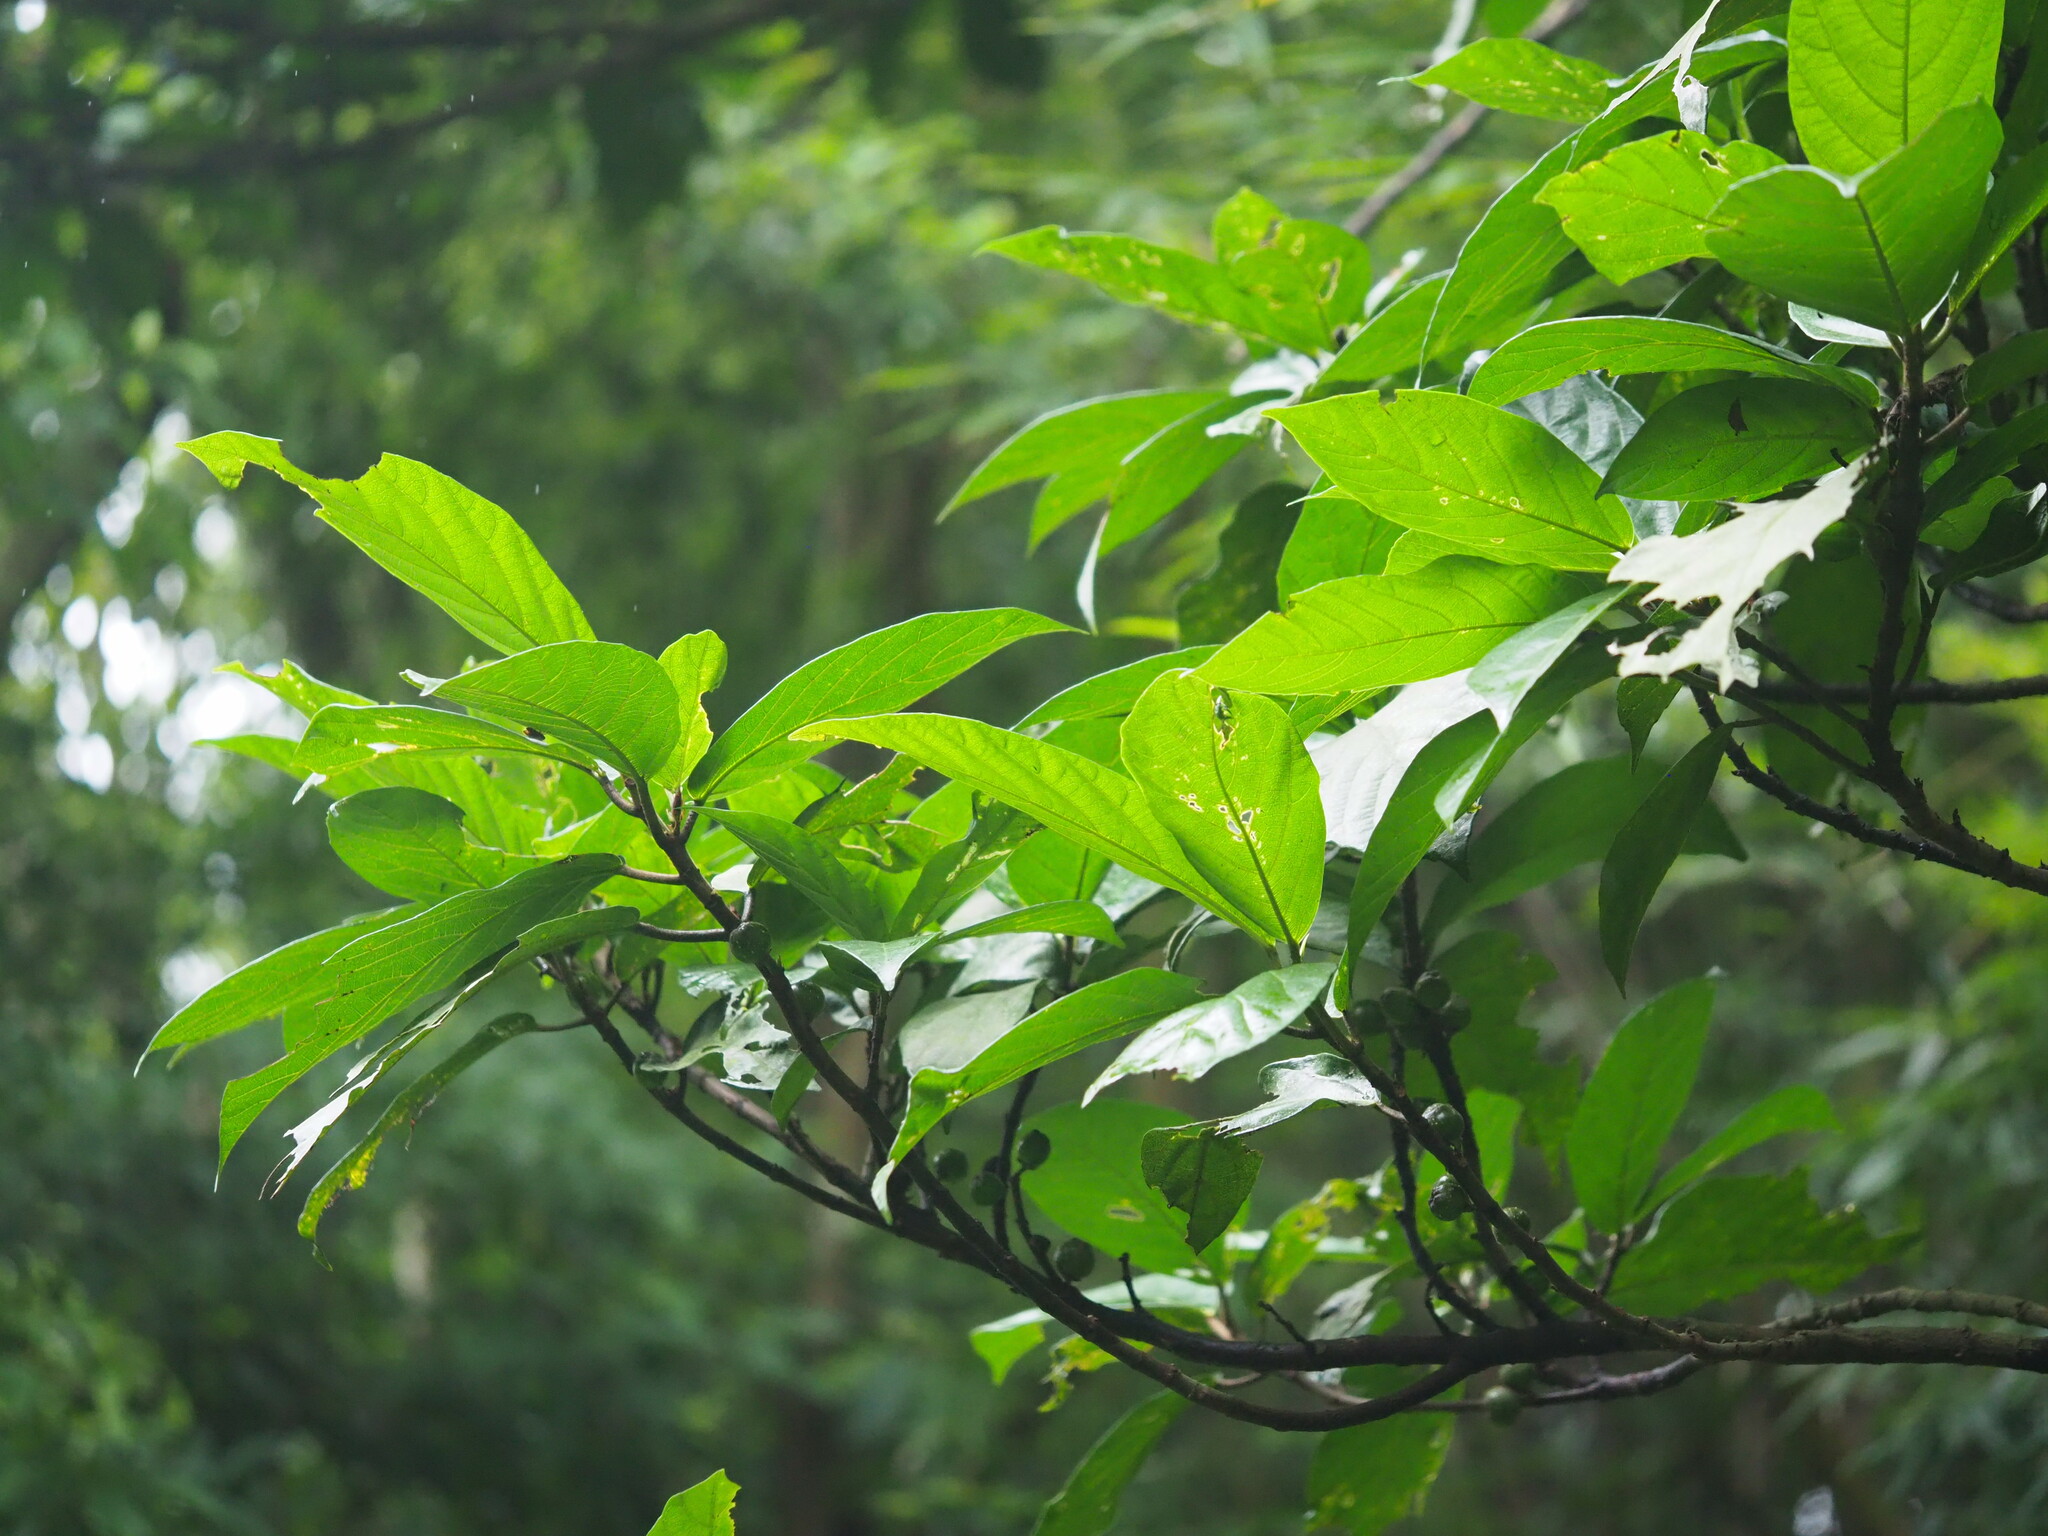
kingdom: Plantae
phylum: Tracheophyta
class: Magnoliopsida
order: Rosales
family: Moraceae
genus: Ficus
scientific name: Ficus benguetensis
